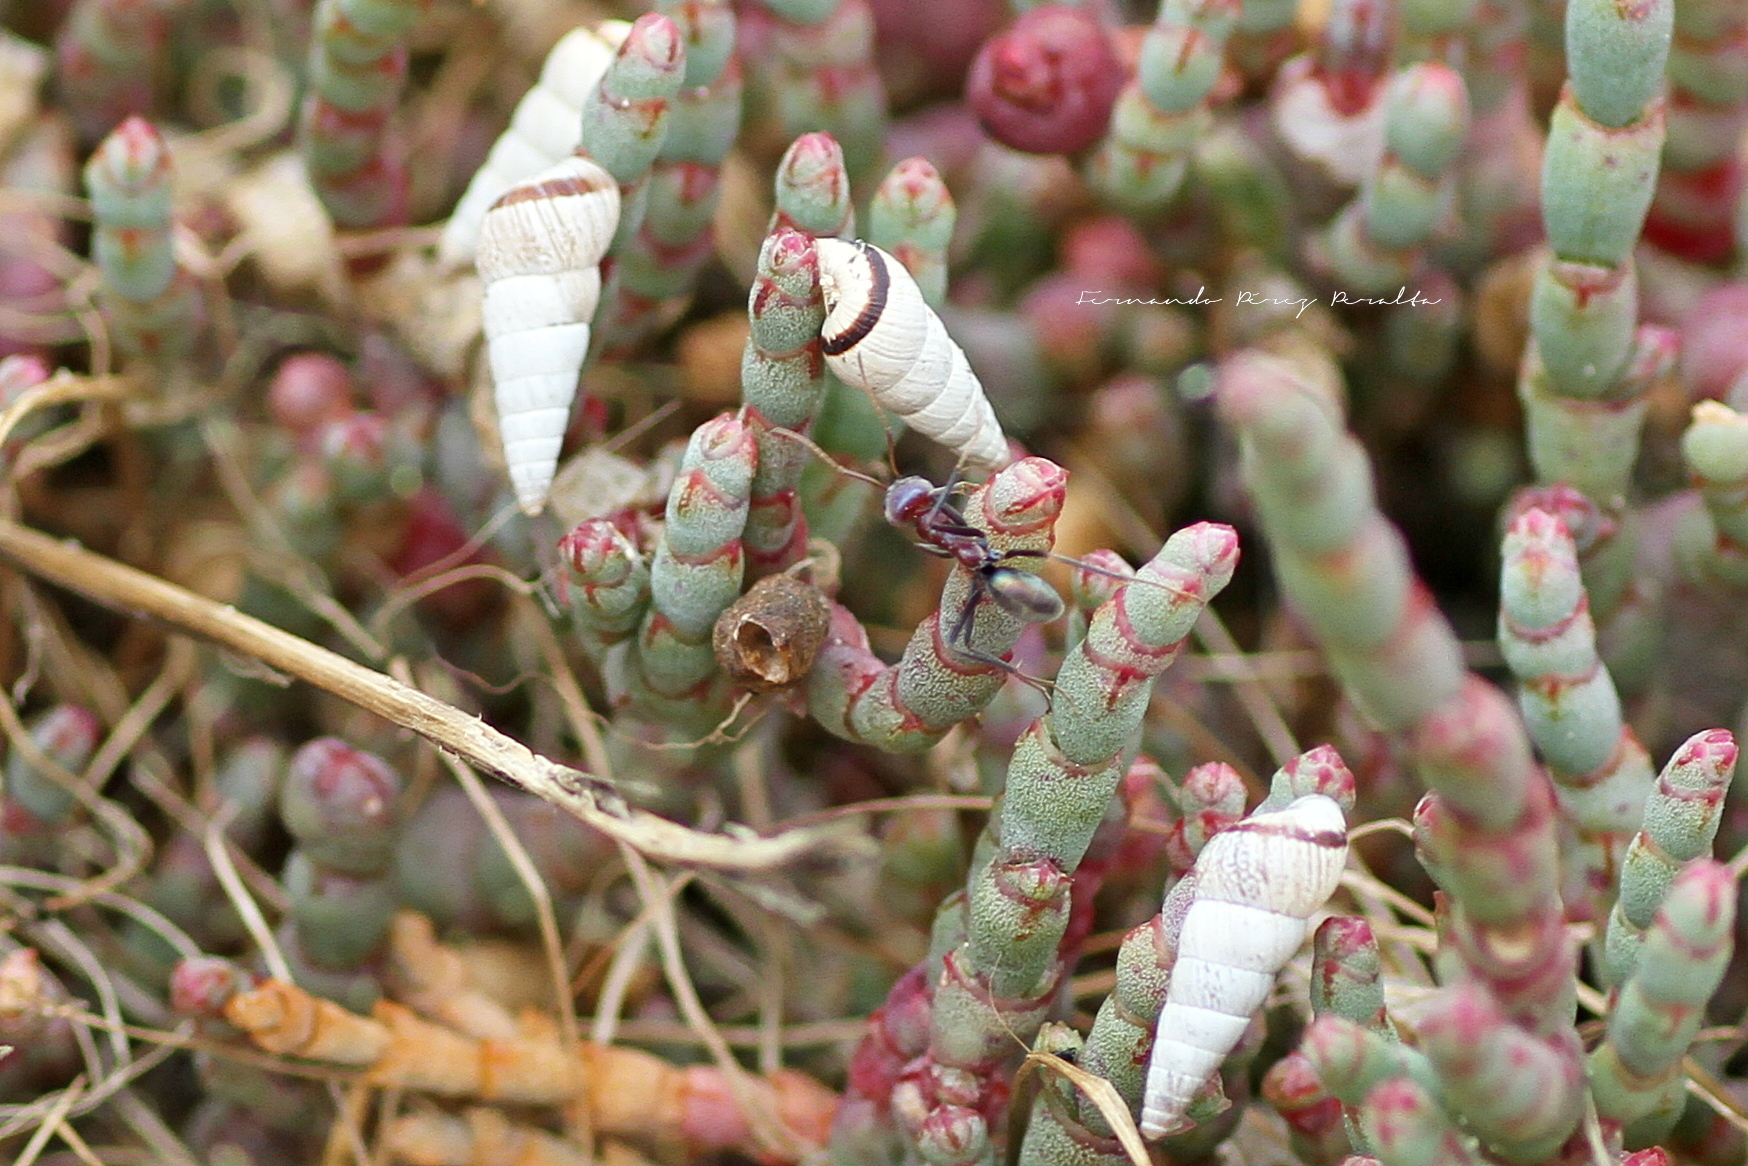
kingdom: Animalia
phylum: Mollusca
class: Gastropoda
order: Stylommatophora
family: Geomitridae
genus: Cochlicella
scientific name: Cochlicella acuta
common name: Pointed snail
